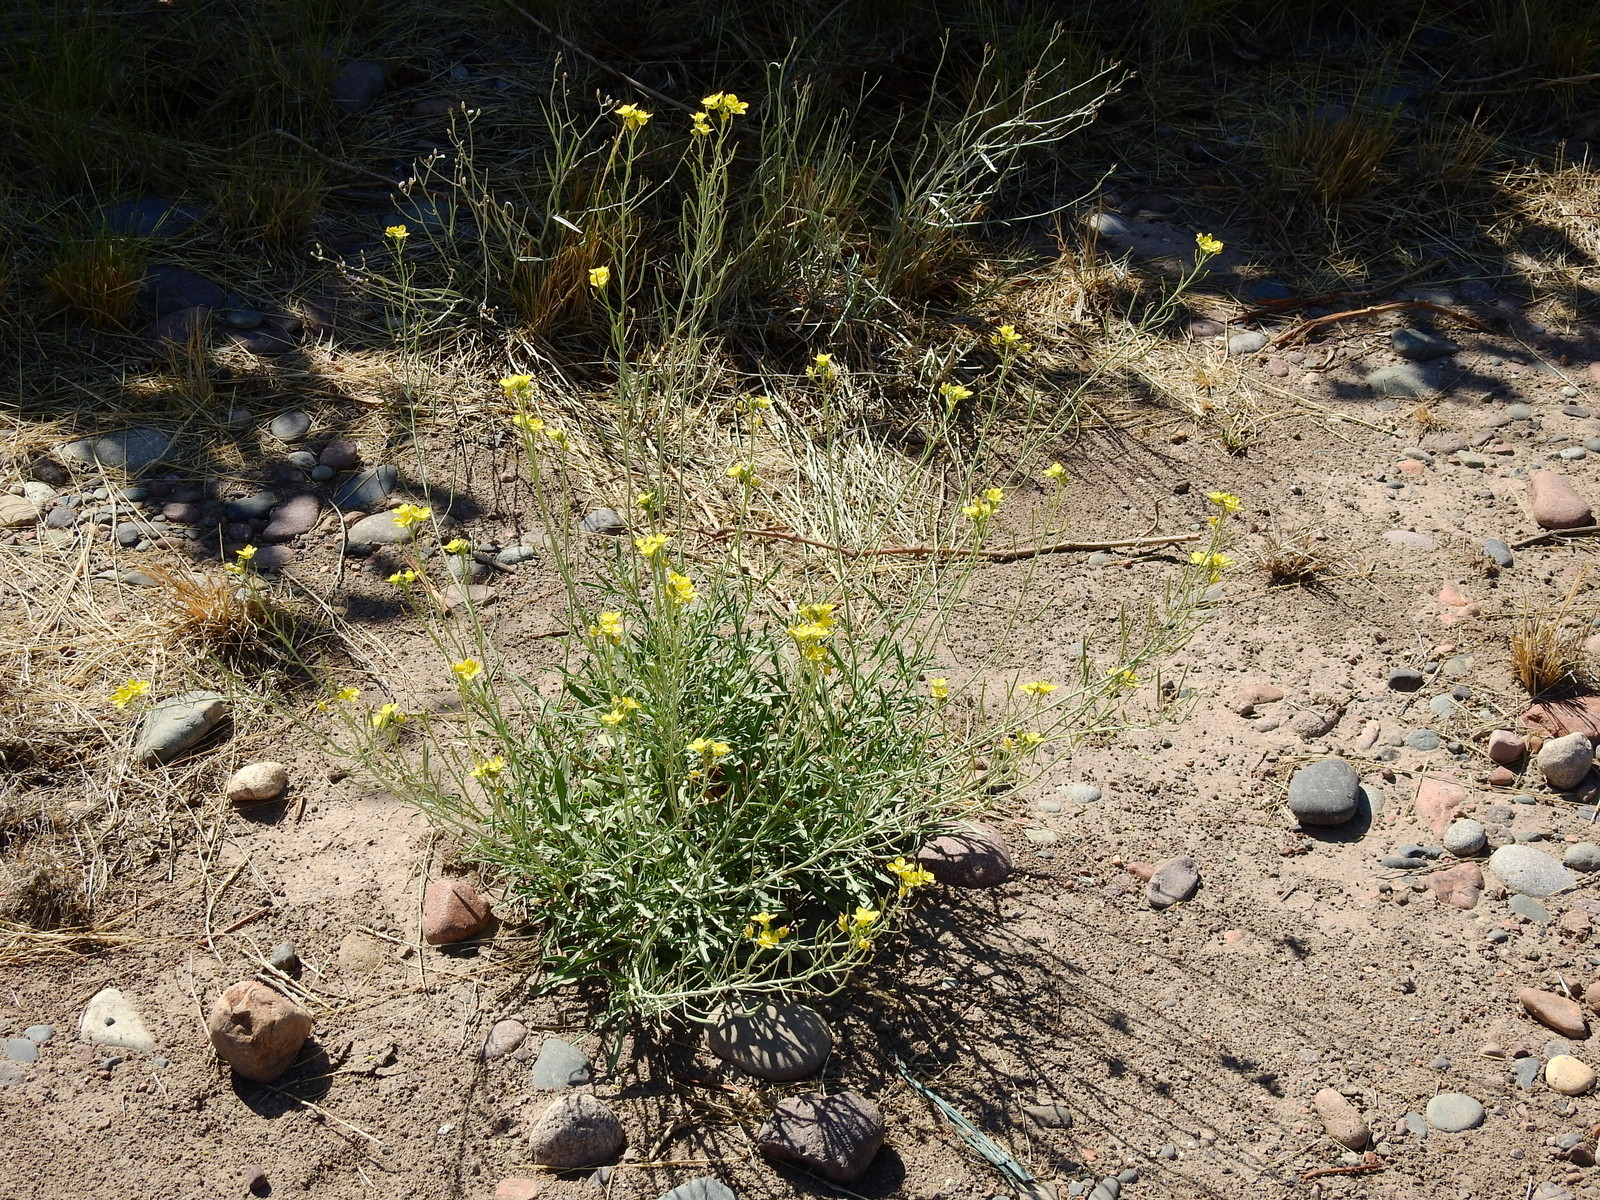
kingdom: Plantae
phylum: Tracheophyta
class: Magnoliopsida
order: Brassicales
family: Brassicaceae
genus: Diplotaxis
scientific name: Diplotaxis tenuifolia
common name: Perennial wall-rocket
